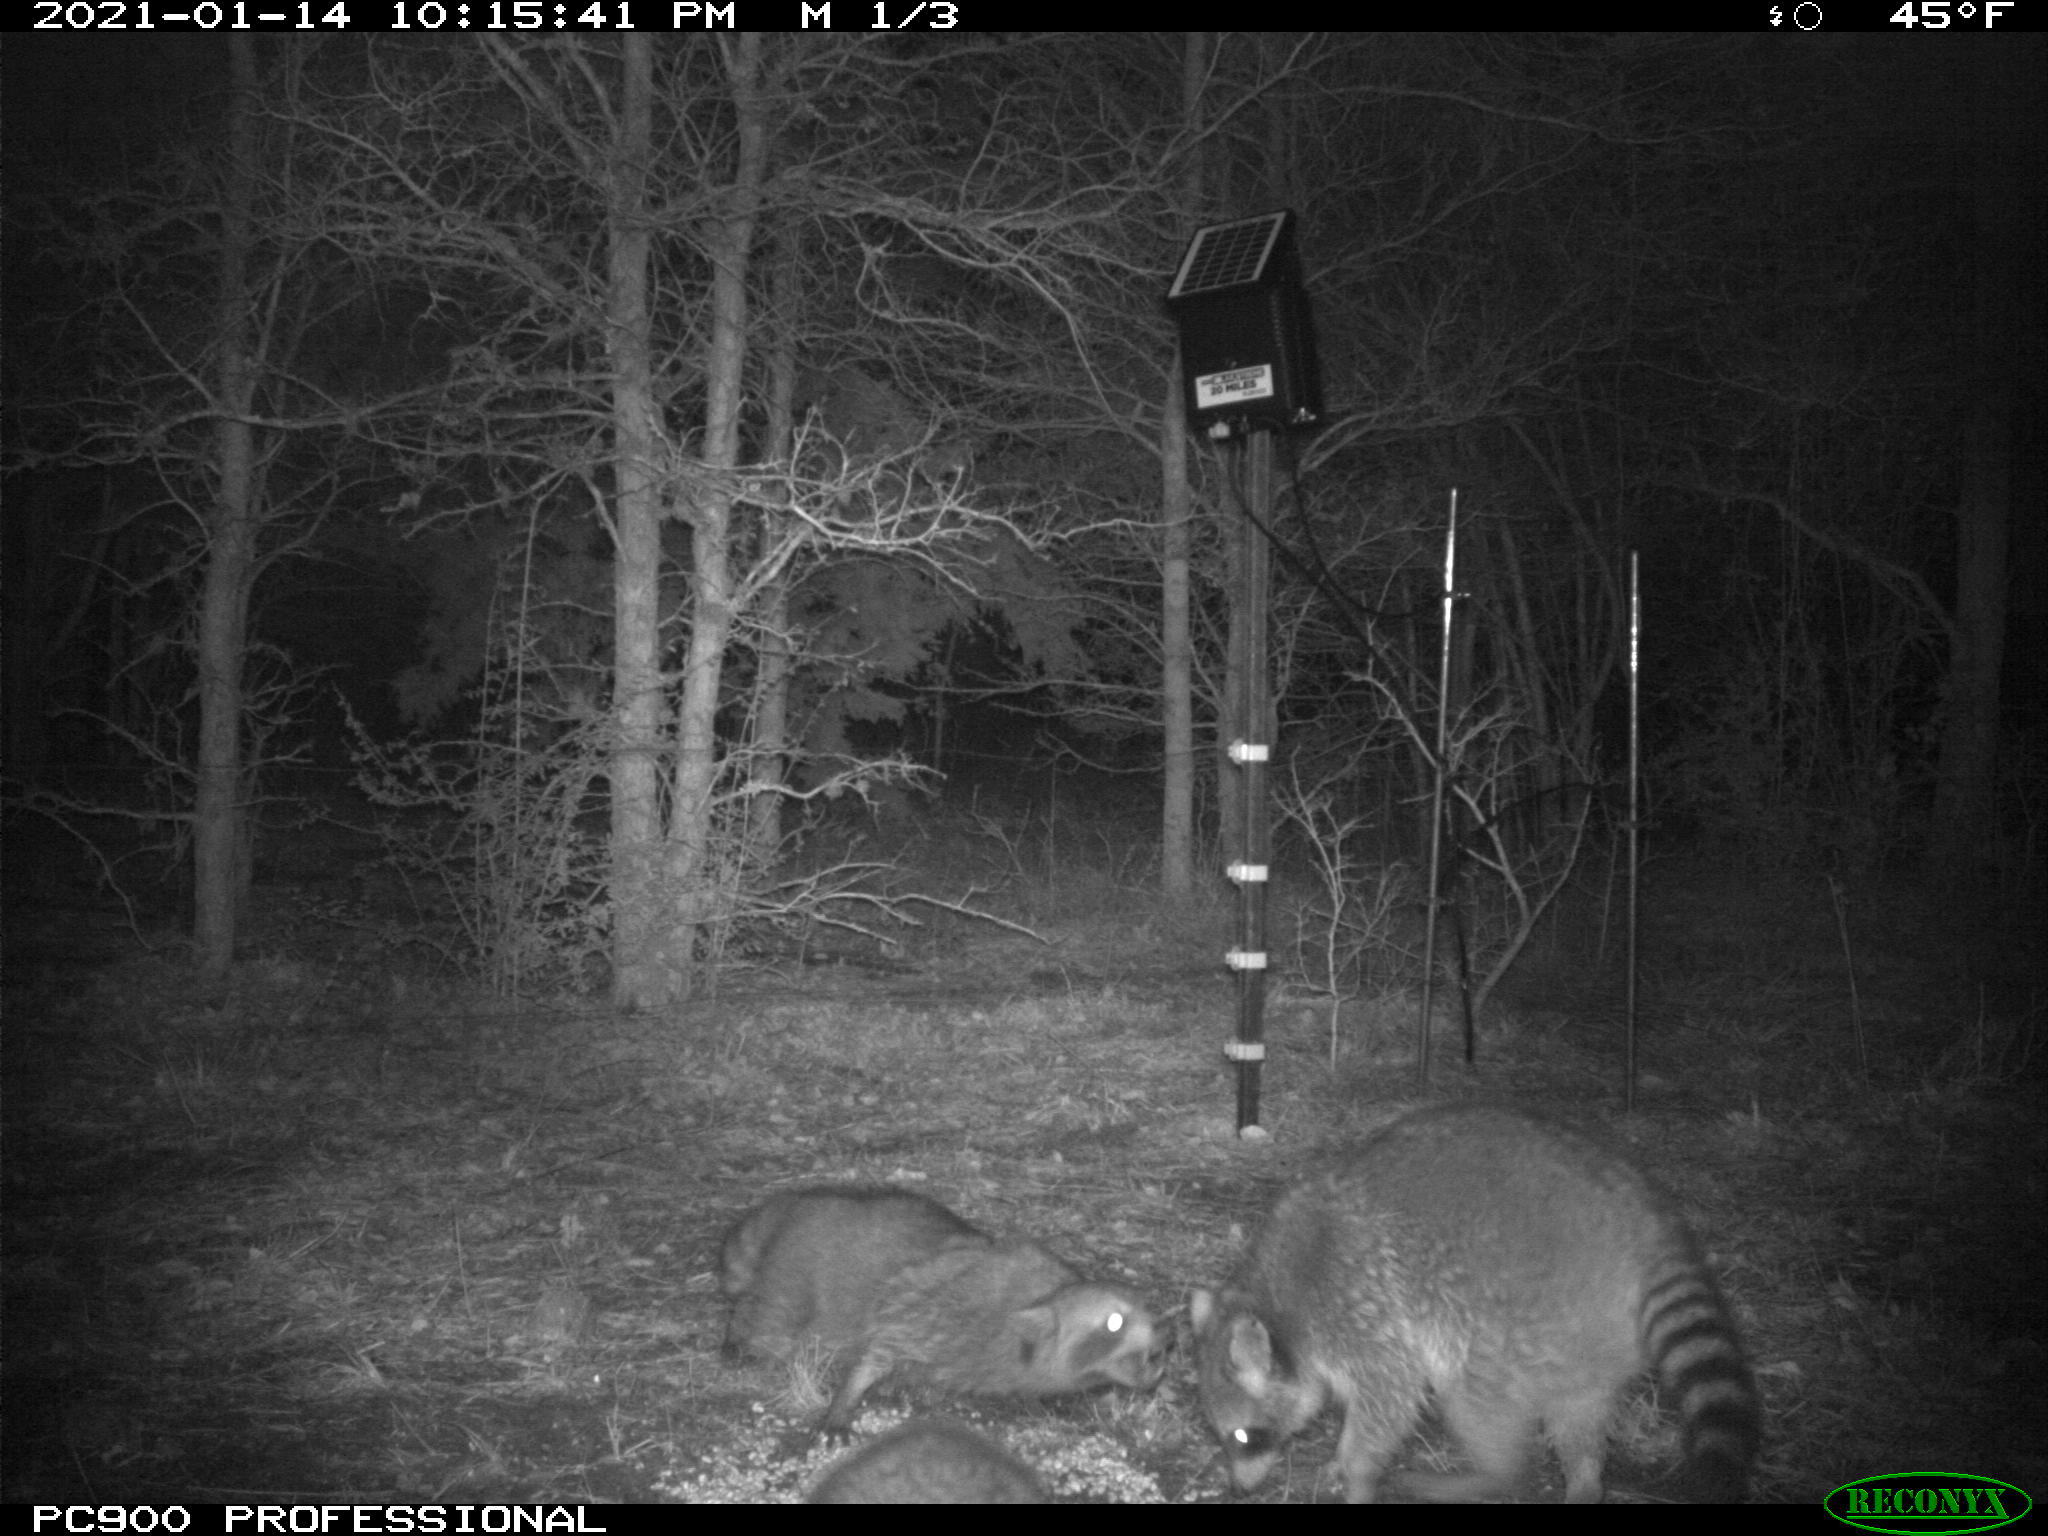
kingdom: Animalia
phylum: Chordata
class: Mammalia
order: Carnivora
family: Procyonidae
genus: Procyon
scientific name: Procyon lotor
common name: Raccoon
